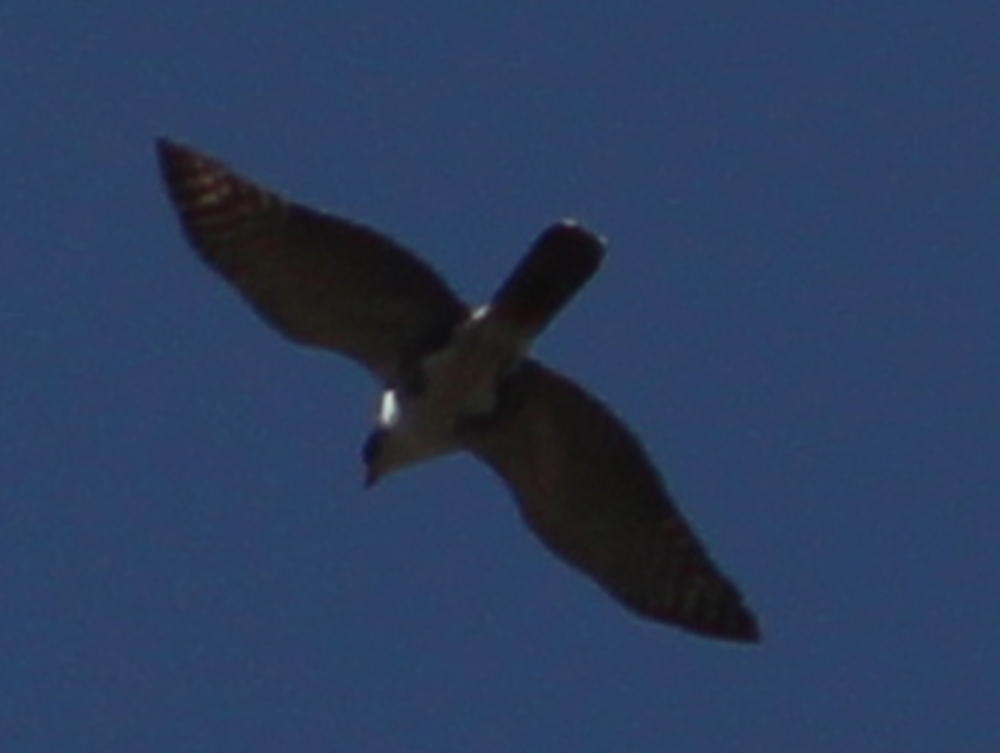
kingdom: Animalia
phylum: Chordata
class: Aves
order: Accipitriformes
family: Accipitridae
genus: Accipiter
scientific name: Accipiter melanoleucus
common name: Black sparrowhawk
